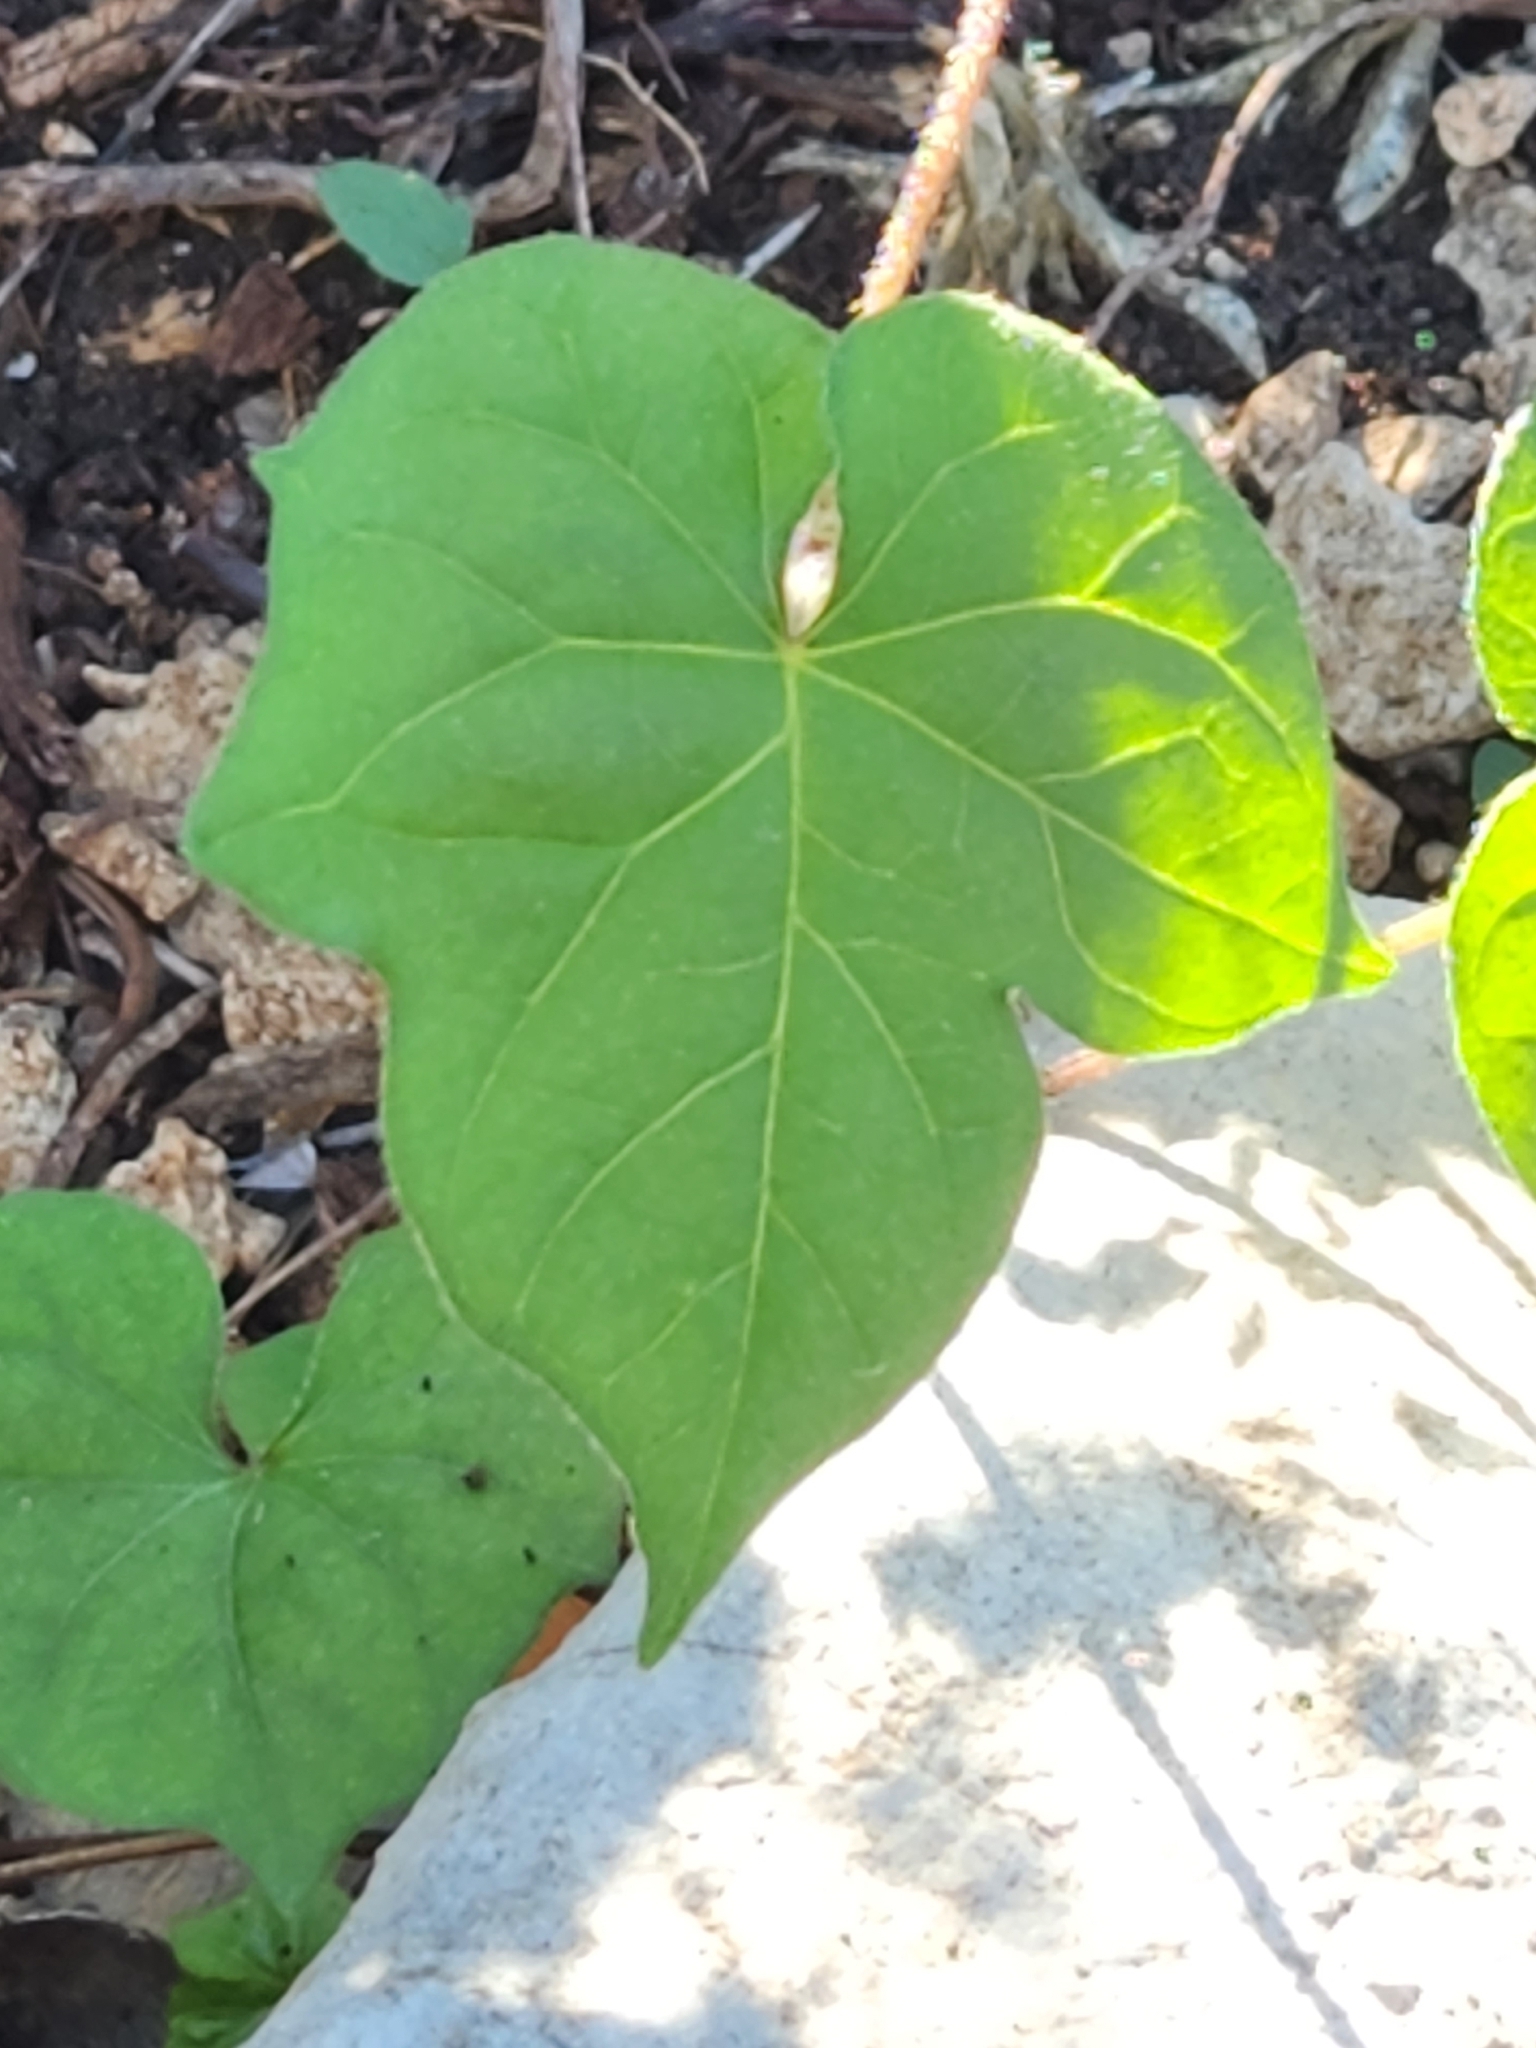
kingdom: Plantae
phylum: Tracheophyta
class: Magnoliopsida
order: Solanales
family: Convolvulaceae
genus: Ipomoea
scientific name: Ipomoea lindheimeri
